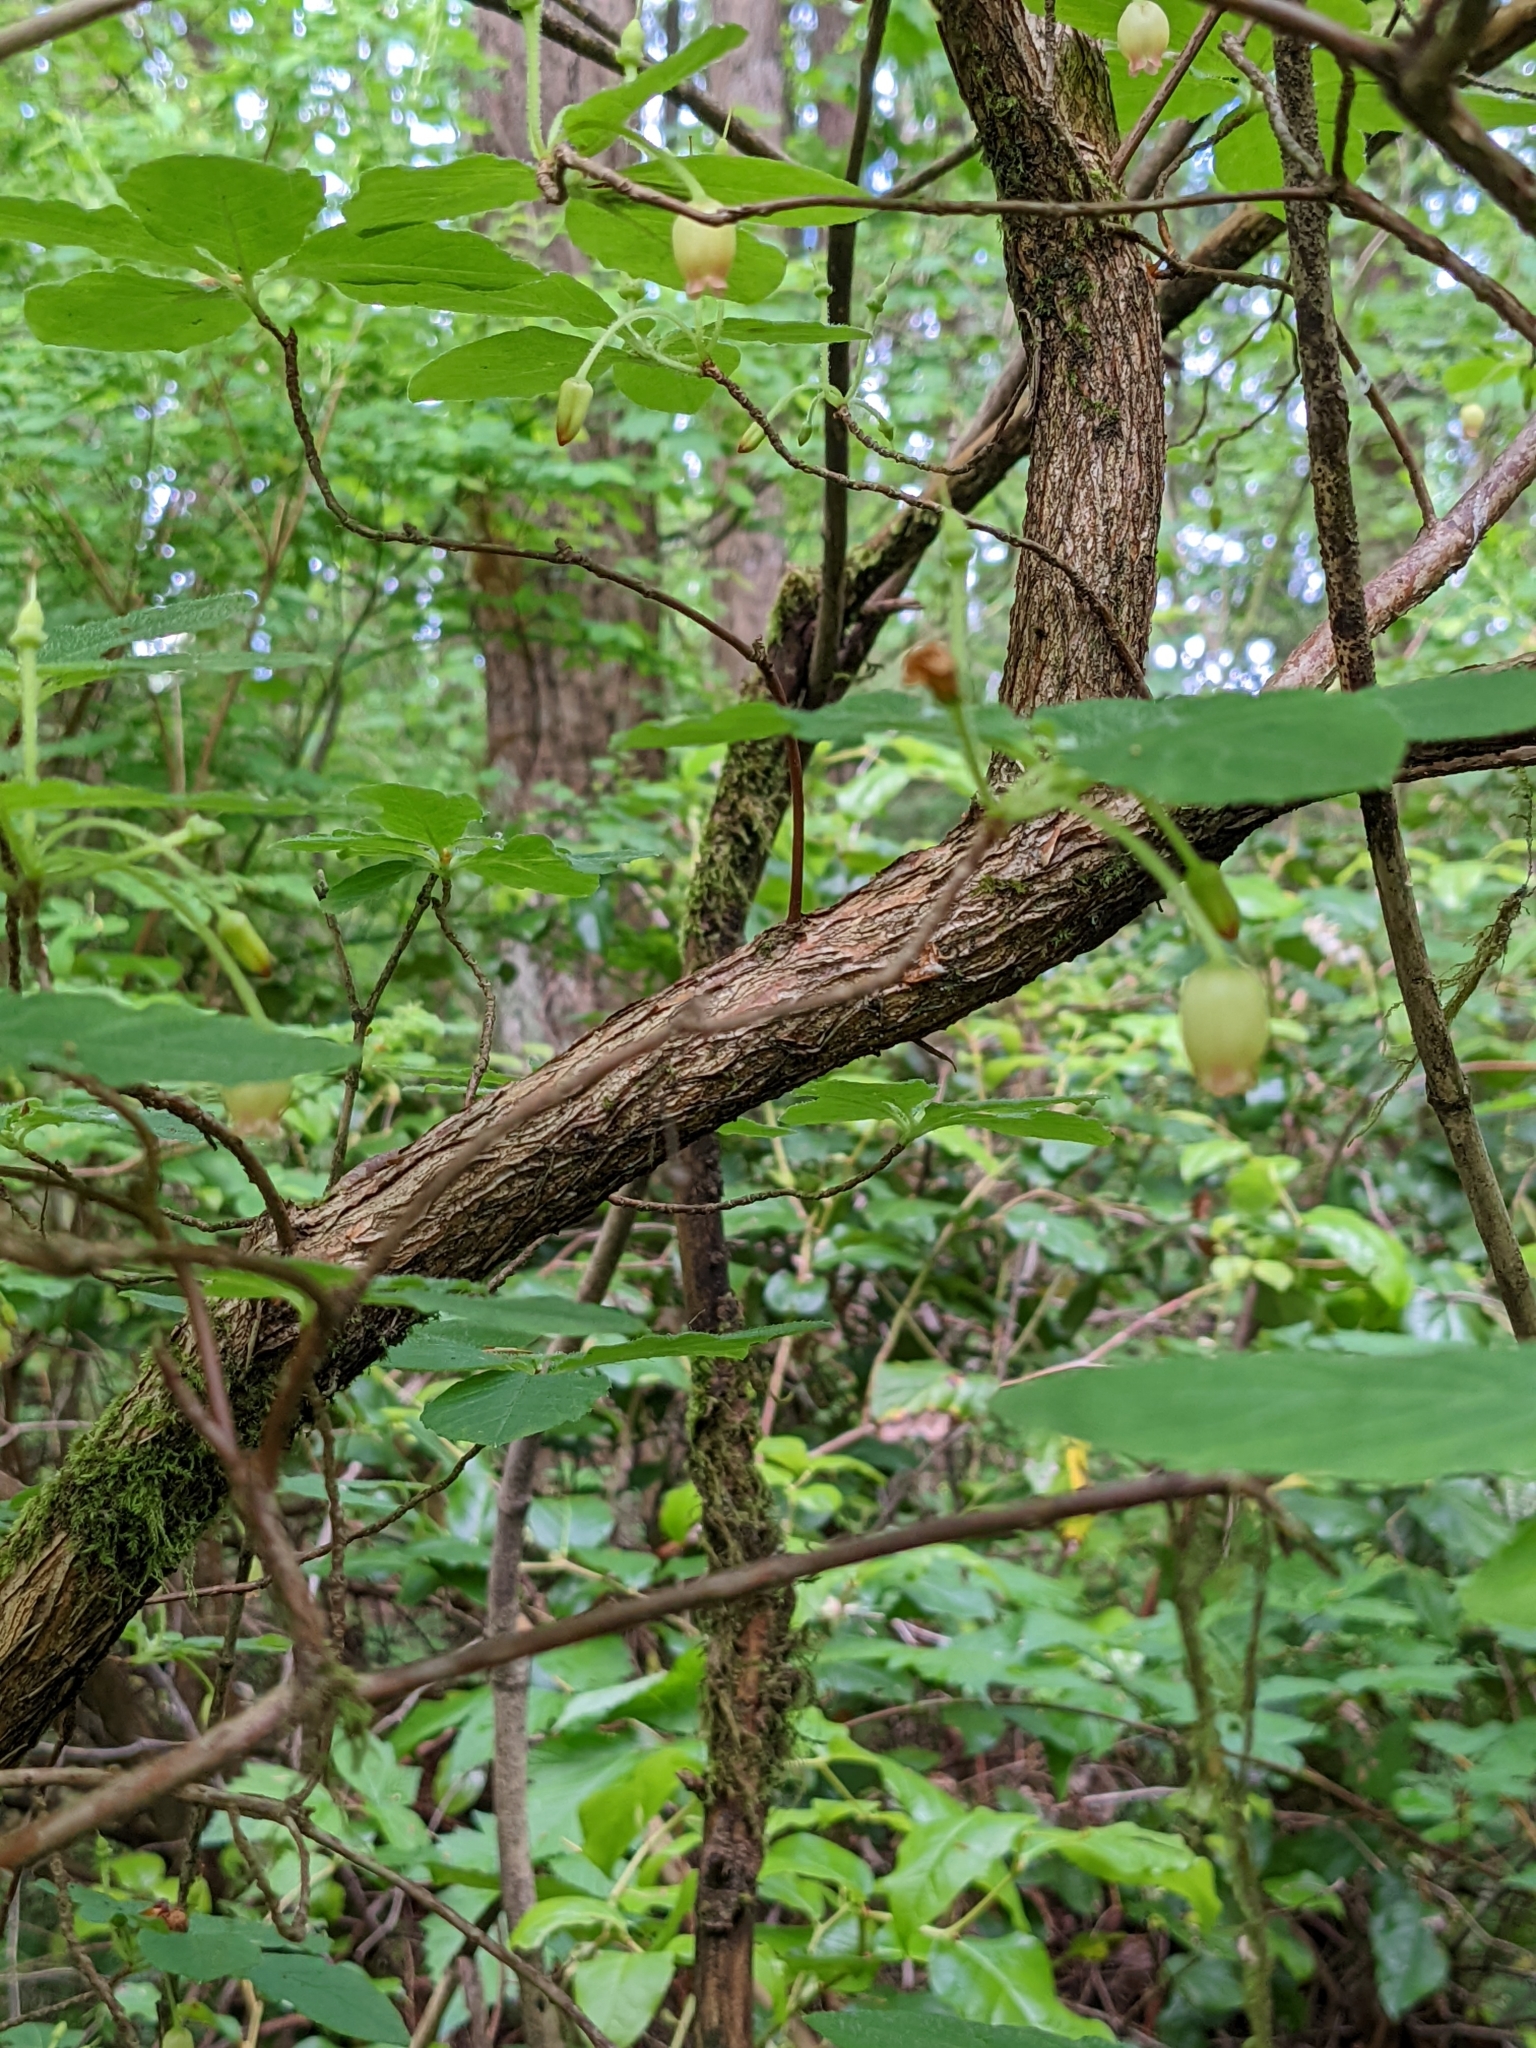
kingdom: Plantae
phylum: Tracheophyta
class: Magnoliopsida
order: Ericales
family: Ericaceae
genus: Rhododendron
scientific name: Rhododendron menziesii
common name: Pacific menziesia
